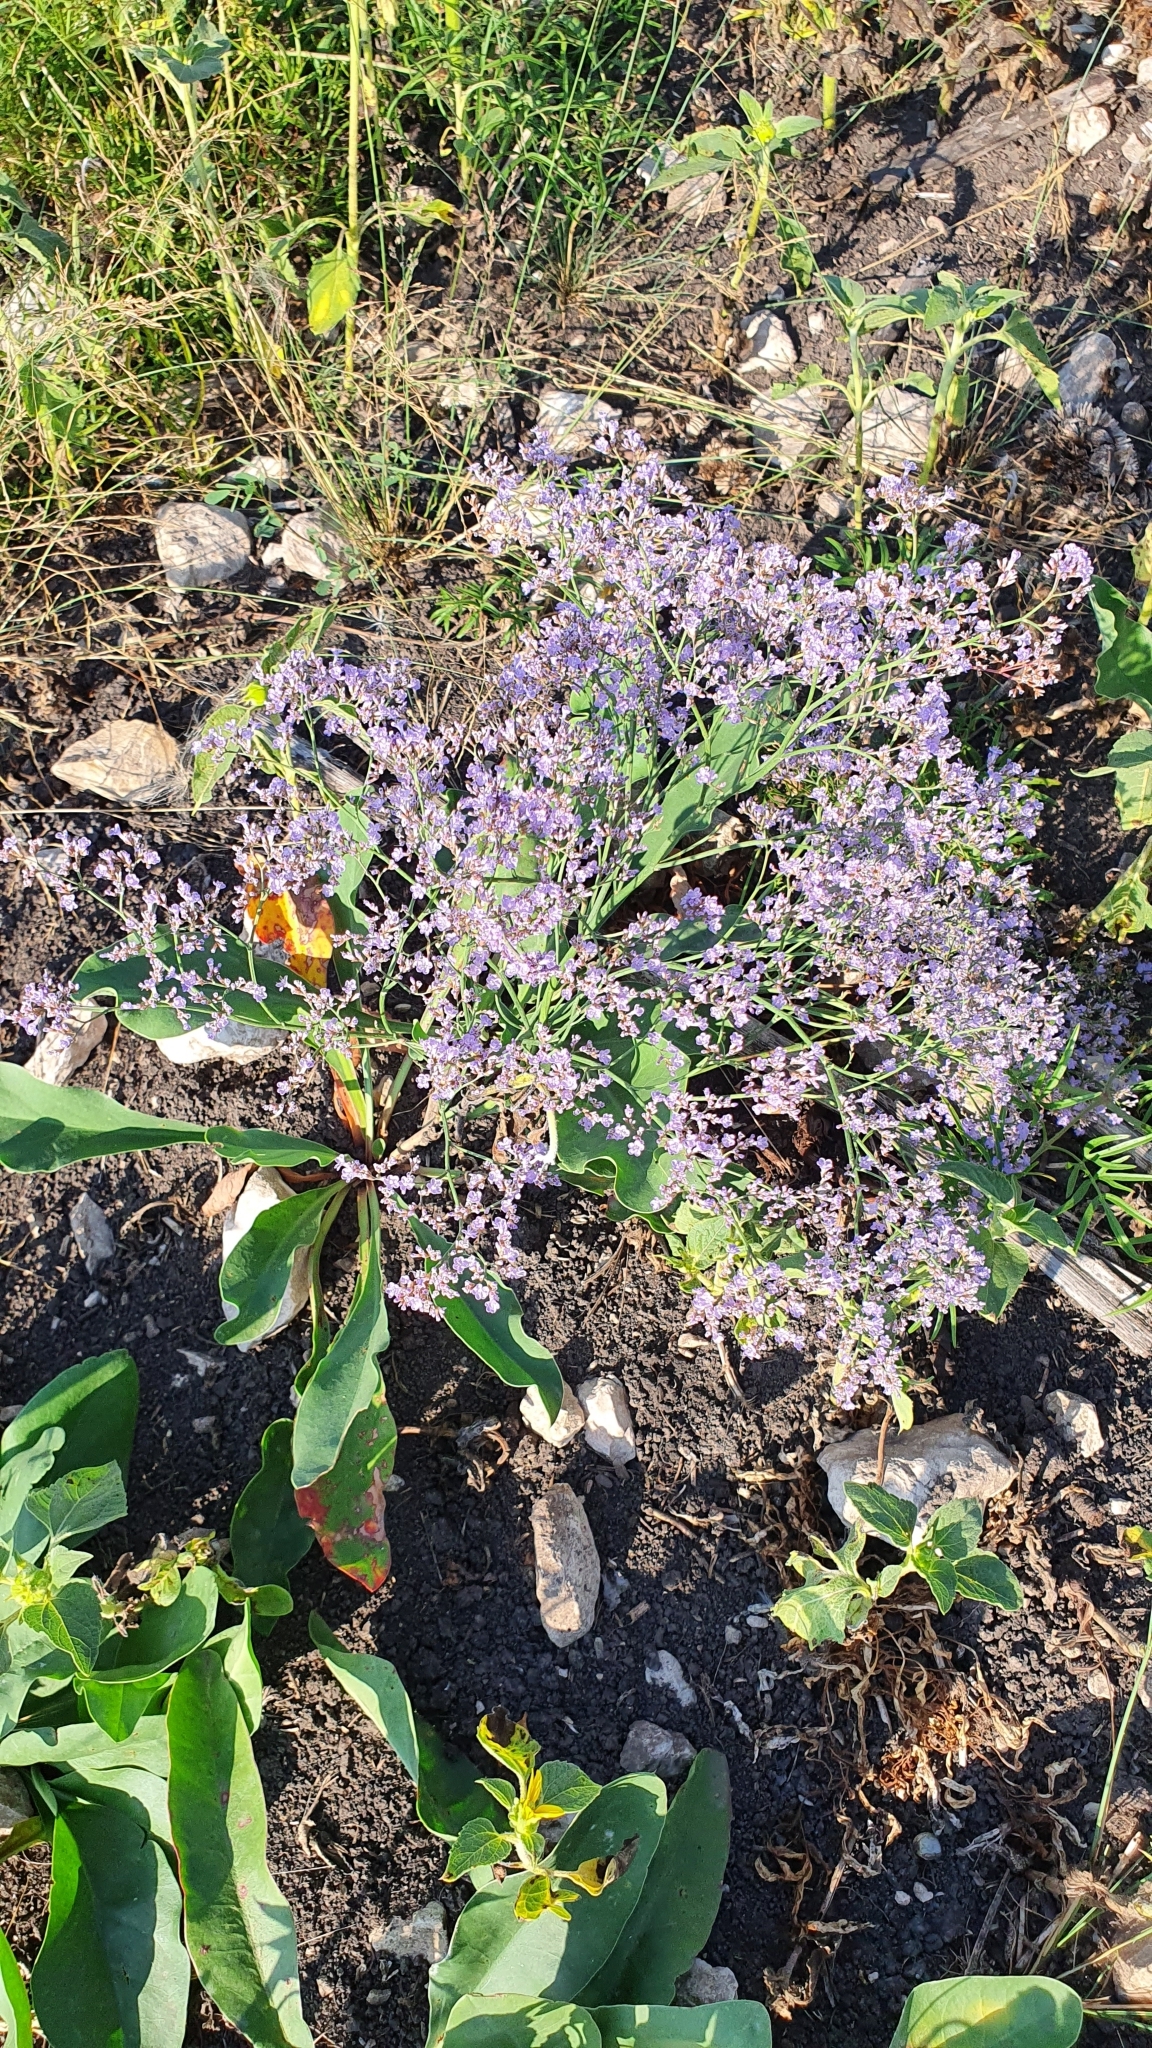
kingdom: Plantae
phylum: Tracheophyta
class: Magnoliopsida
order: Caryophyllales
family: Plumbaginaceae
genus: Limonium
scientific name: Limonium gmelini
